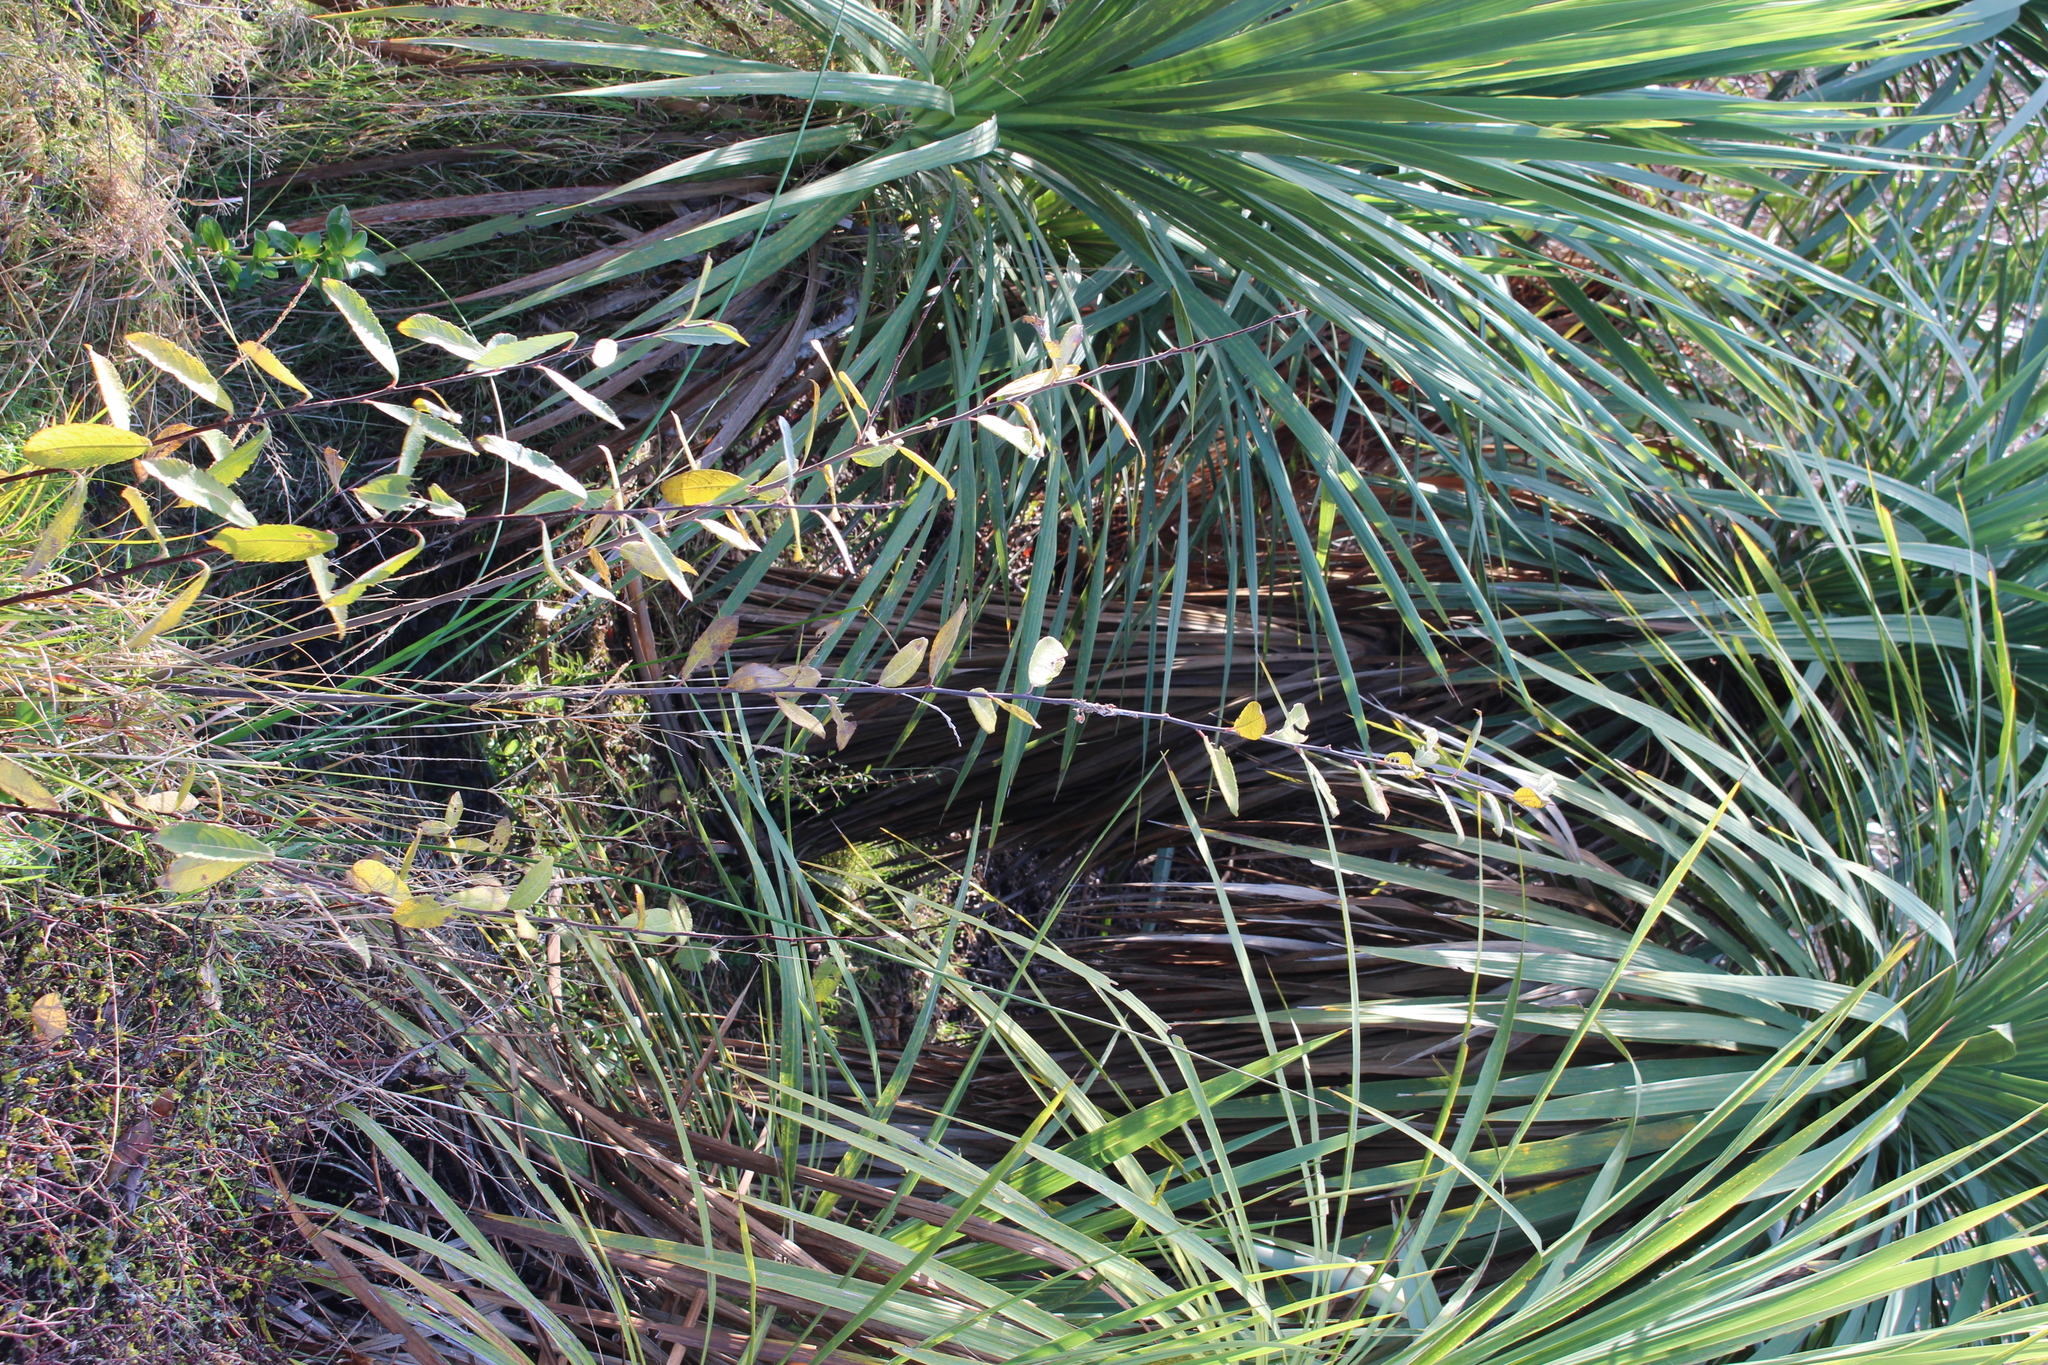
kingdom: Plantae
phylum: Tracheophyta
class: Magnoliopsida
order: Malpighiales
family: Salicaceae
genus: Salix
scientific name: Salix cinerea
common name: Common sallow
